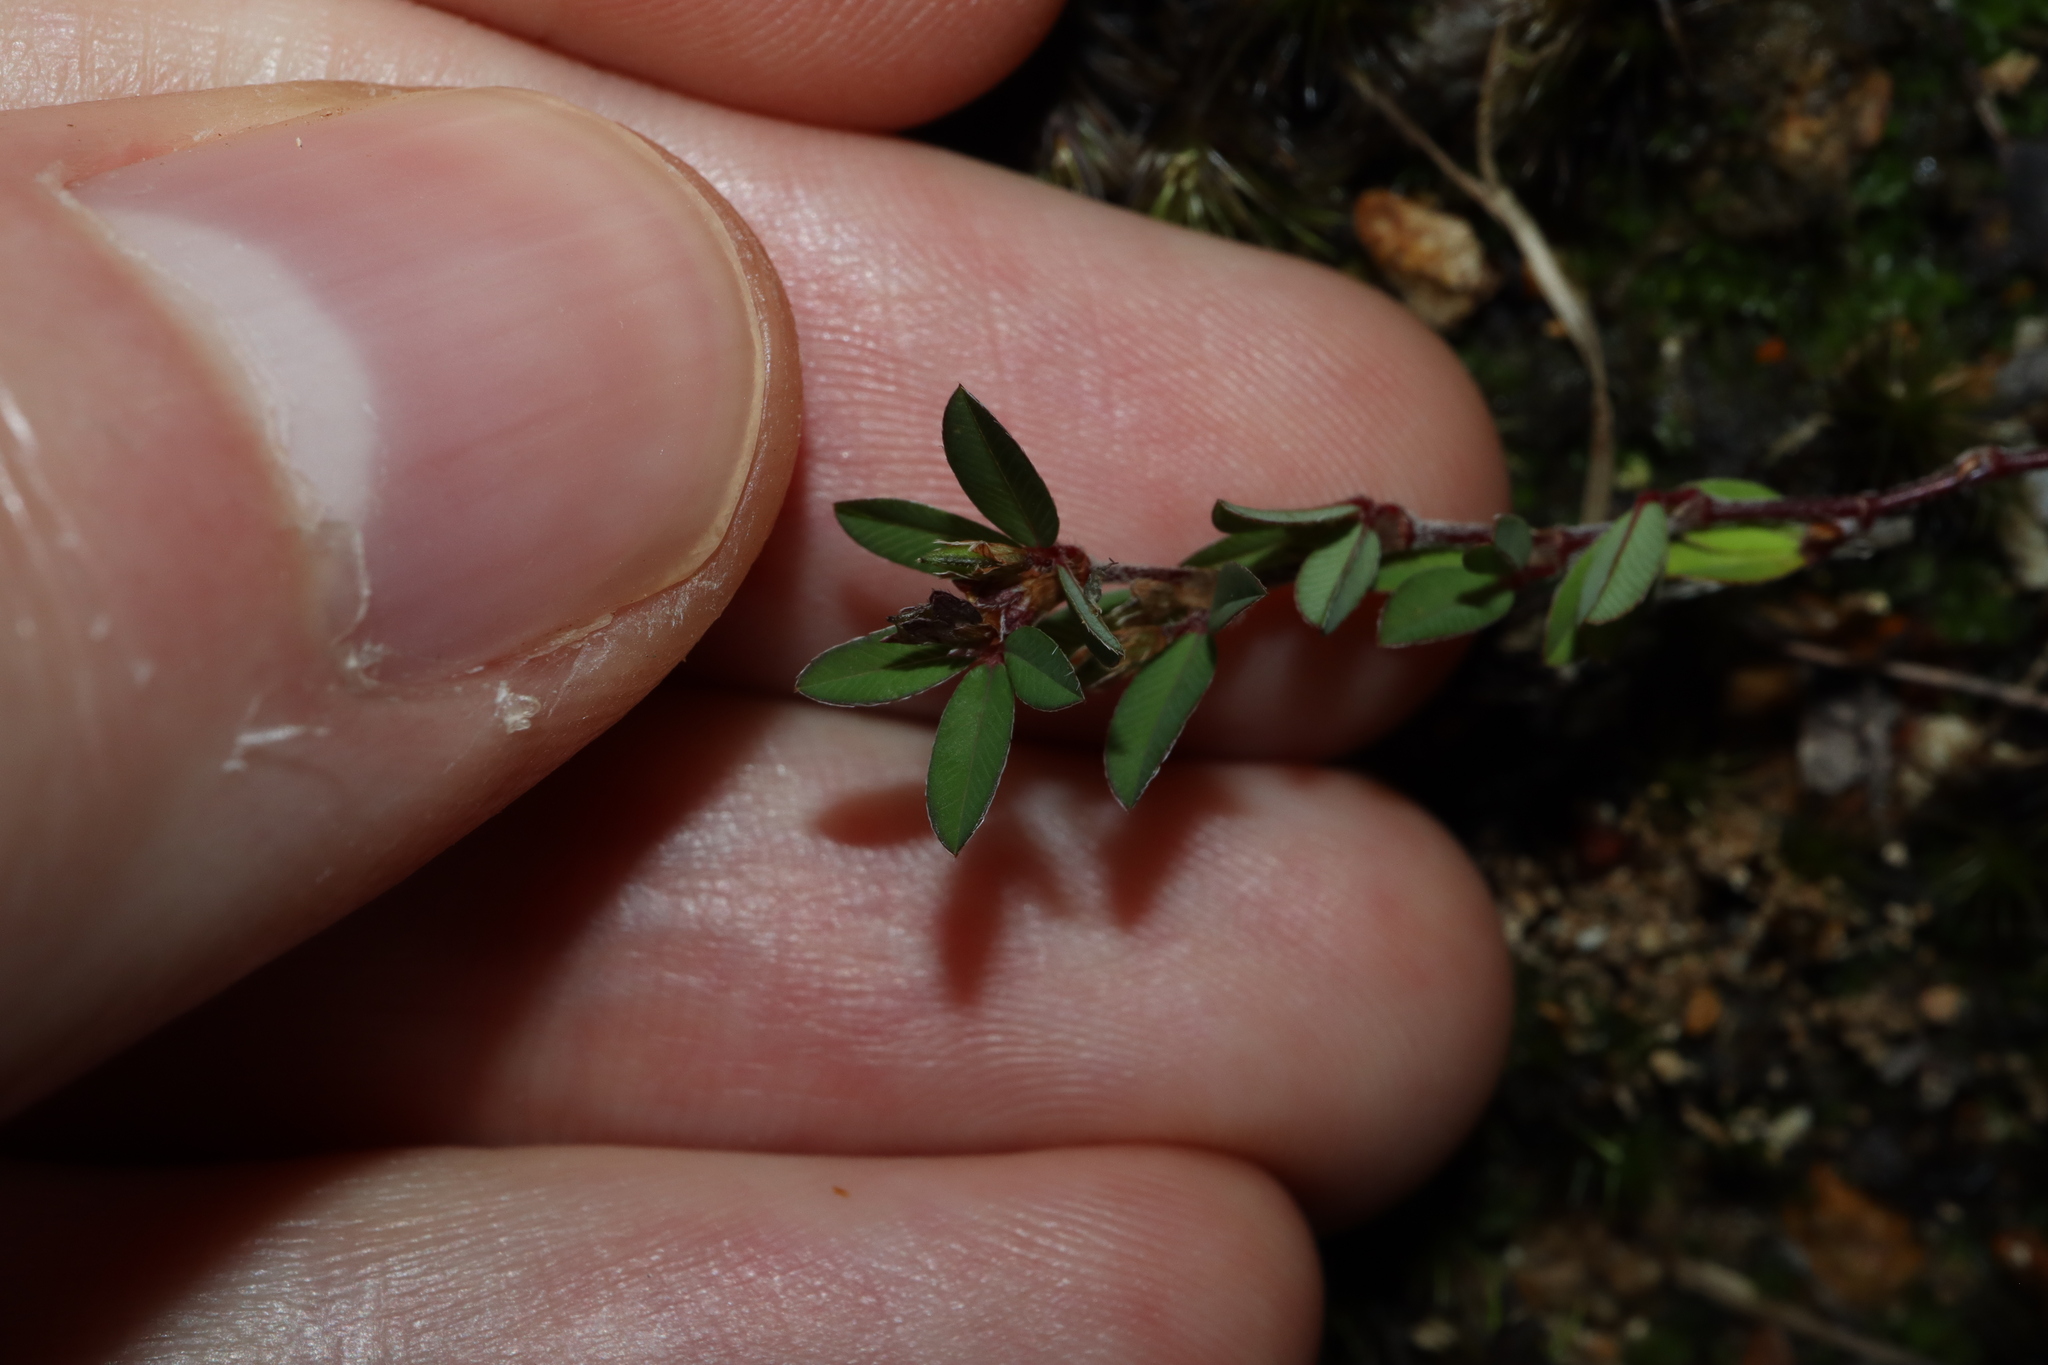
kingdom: Plantae
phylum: Tracheophyta
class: Magnoliopsida
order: Fabales
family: Fabaceae
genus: Kummerowia
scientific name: Kummerowia striata
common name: Japanese clover
